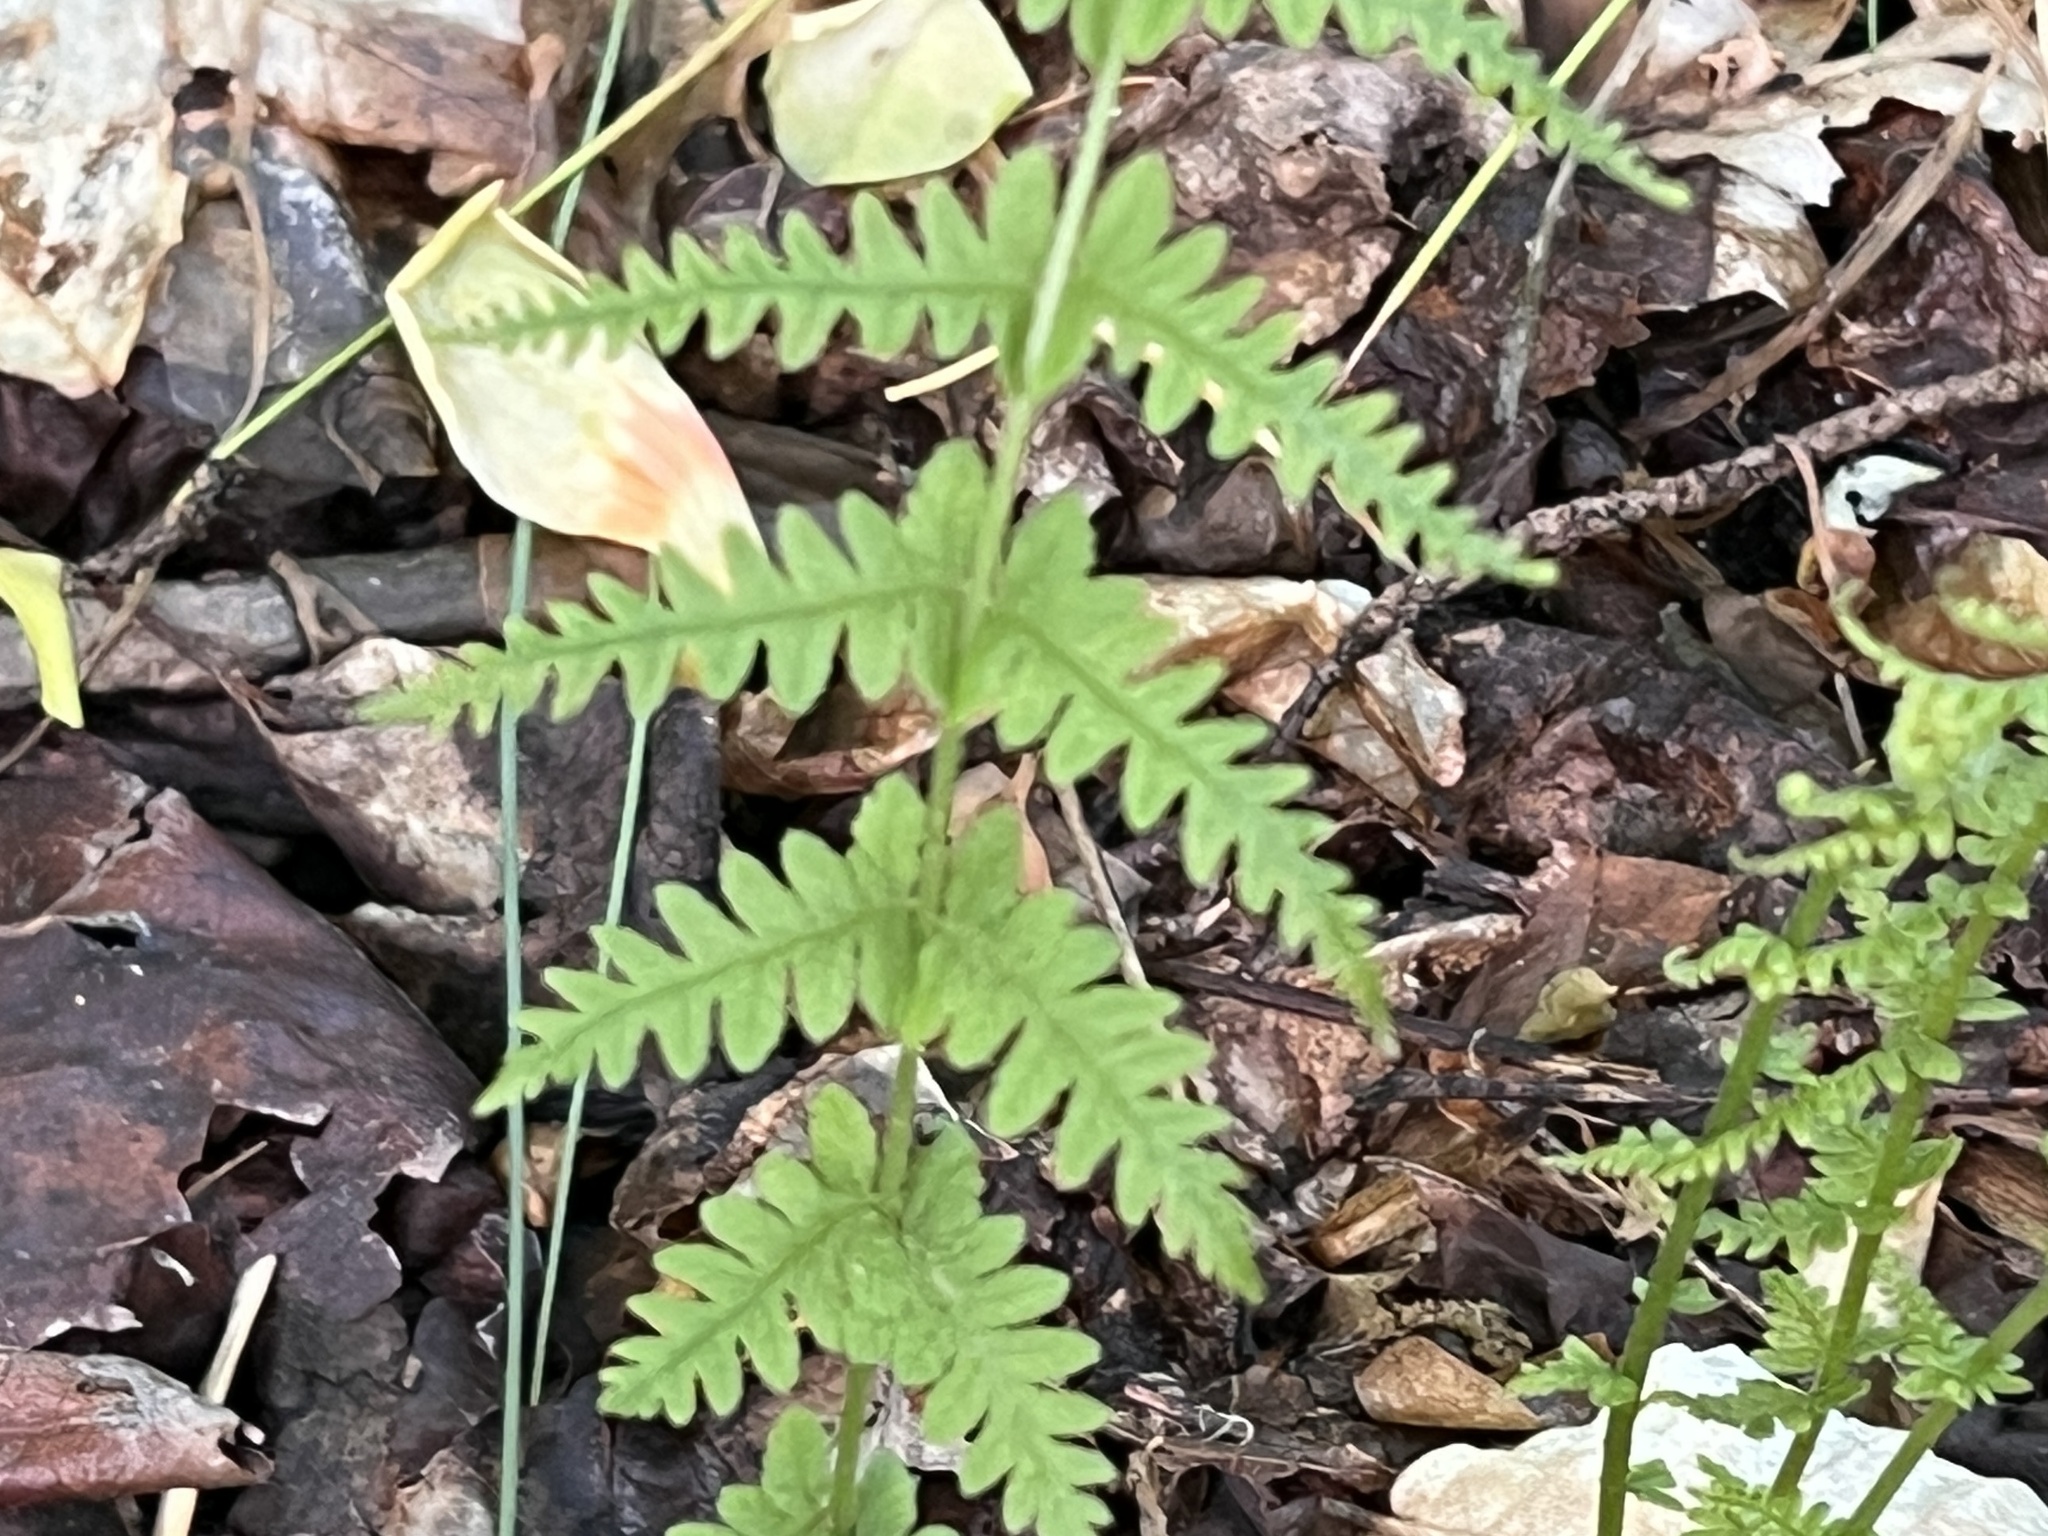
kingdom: Plantae
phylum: Tracheophyta
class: Polypodiopsida
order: Polypodiales
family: Thelypteridaceae
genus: Amauropelta
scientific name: Amauropelta noveboracensis
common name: New york fern
